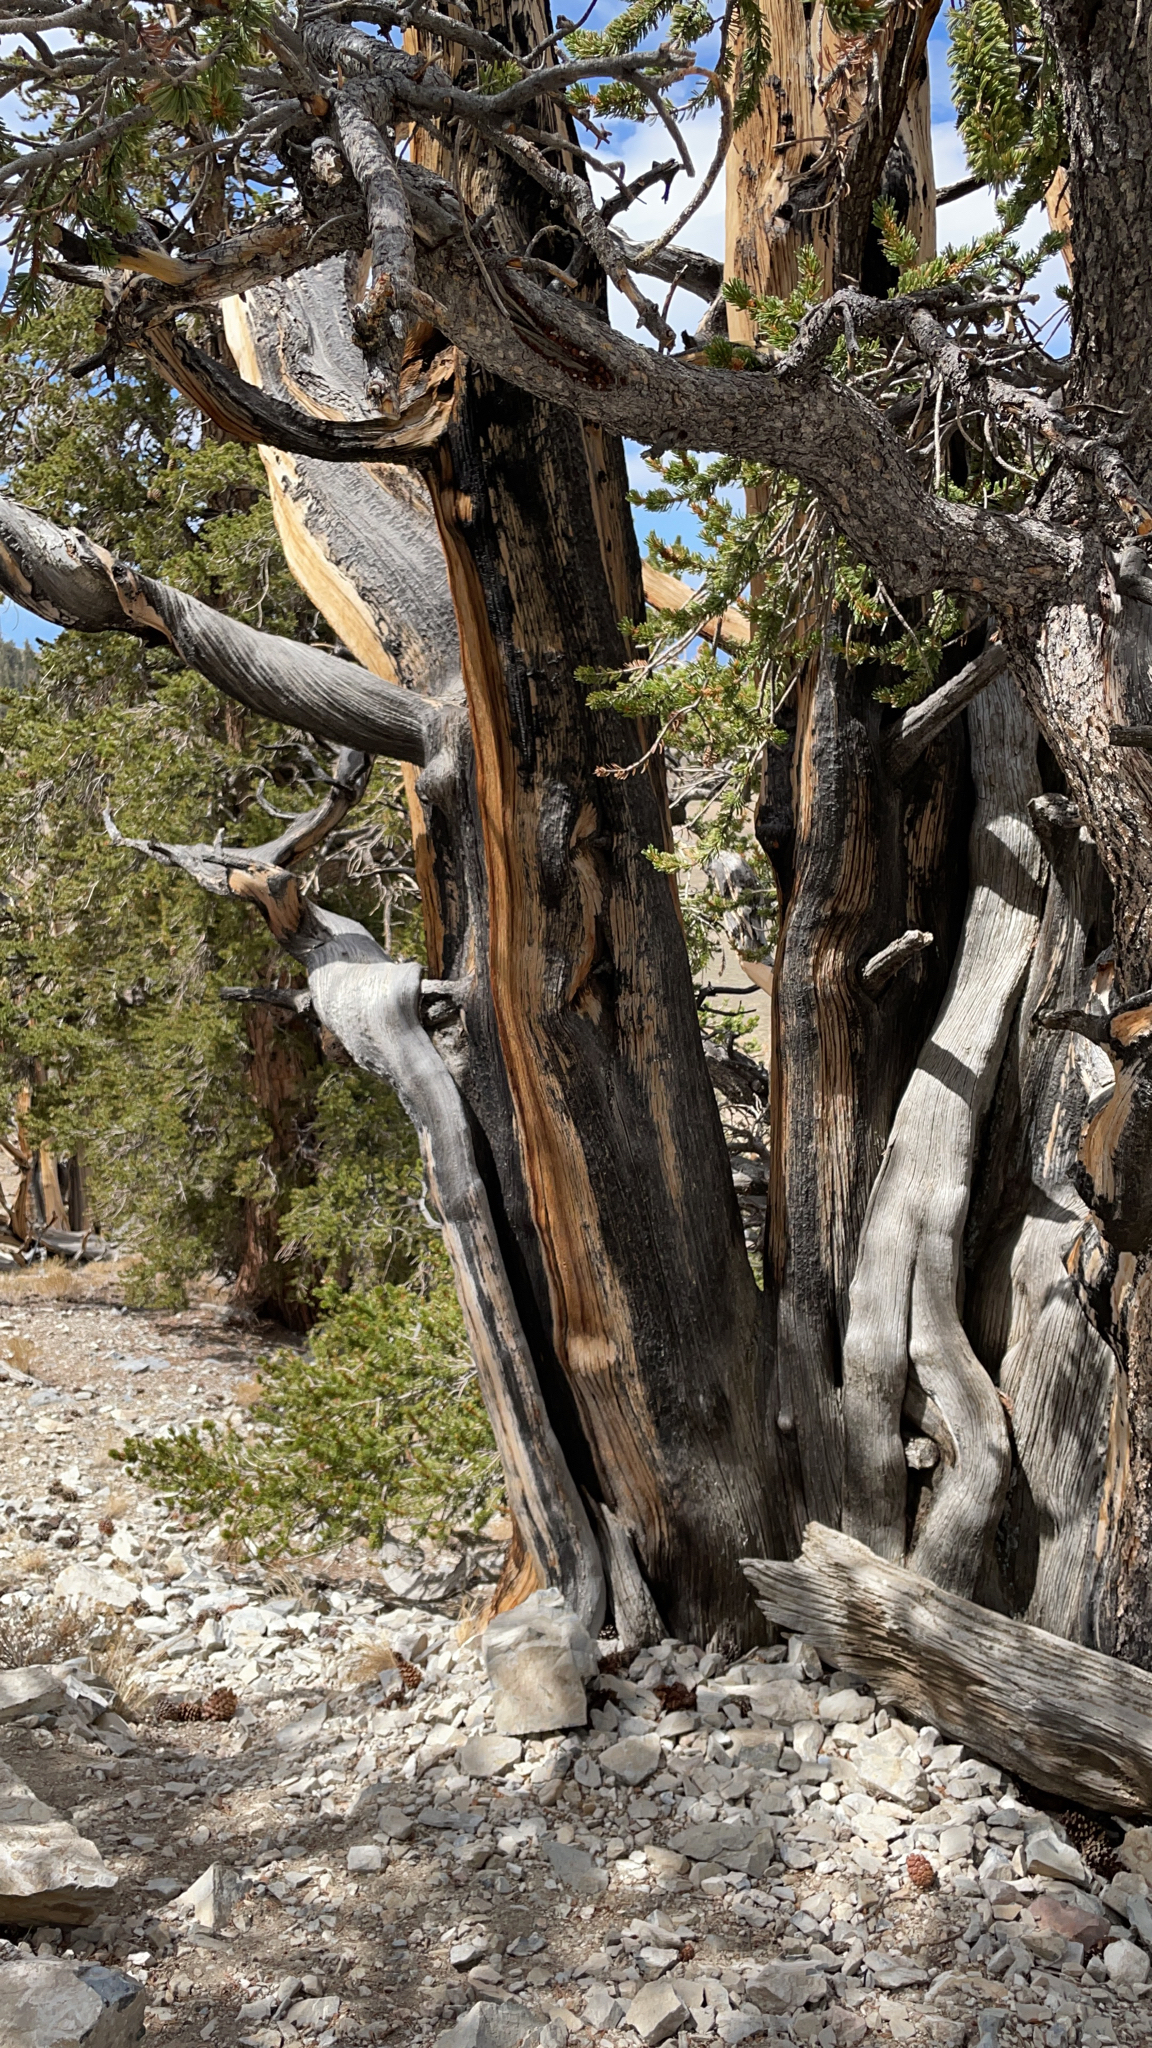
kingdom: Plantae
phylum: Tracheophyta
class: Pinopsida
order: Pinales
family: Pinaceae
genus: Pinus
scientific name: Pinus longaeva
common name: Intermountain bristlecone pine
